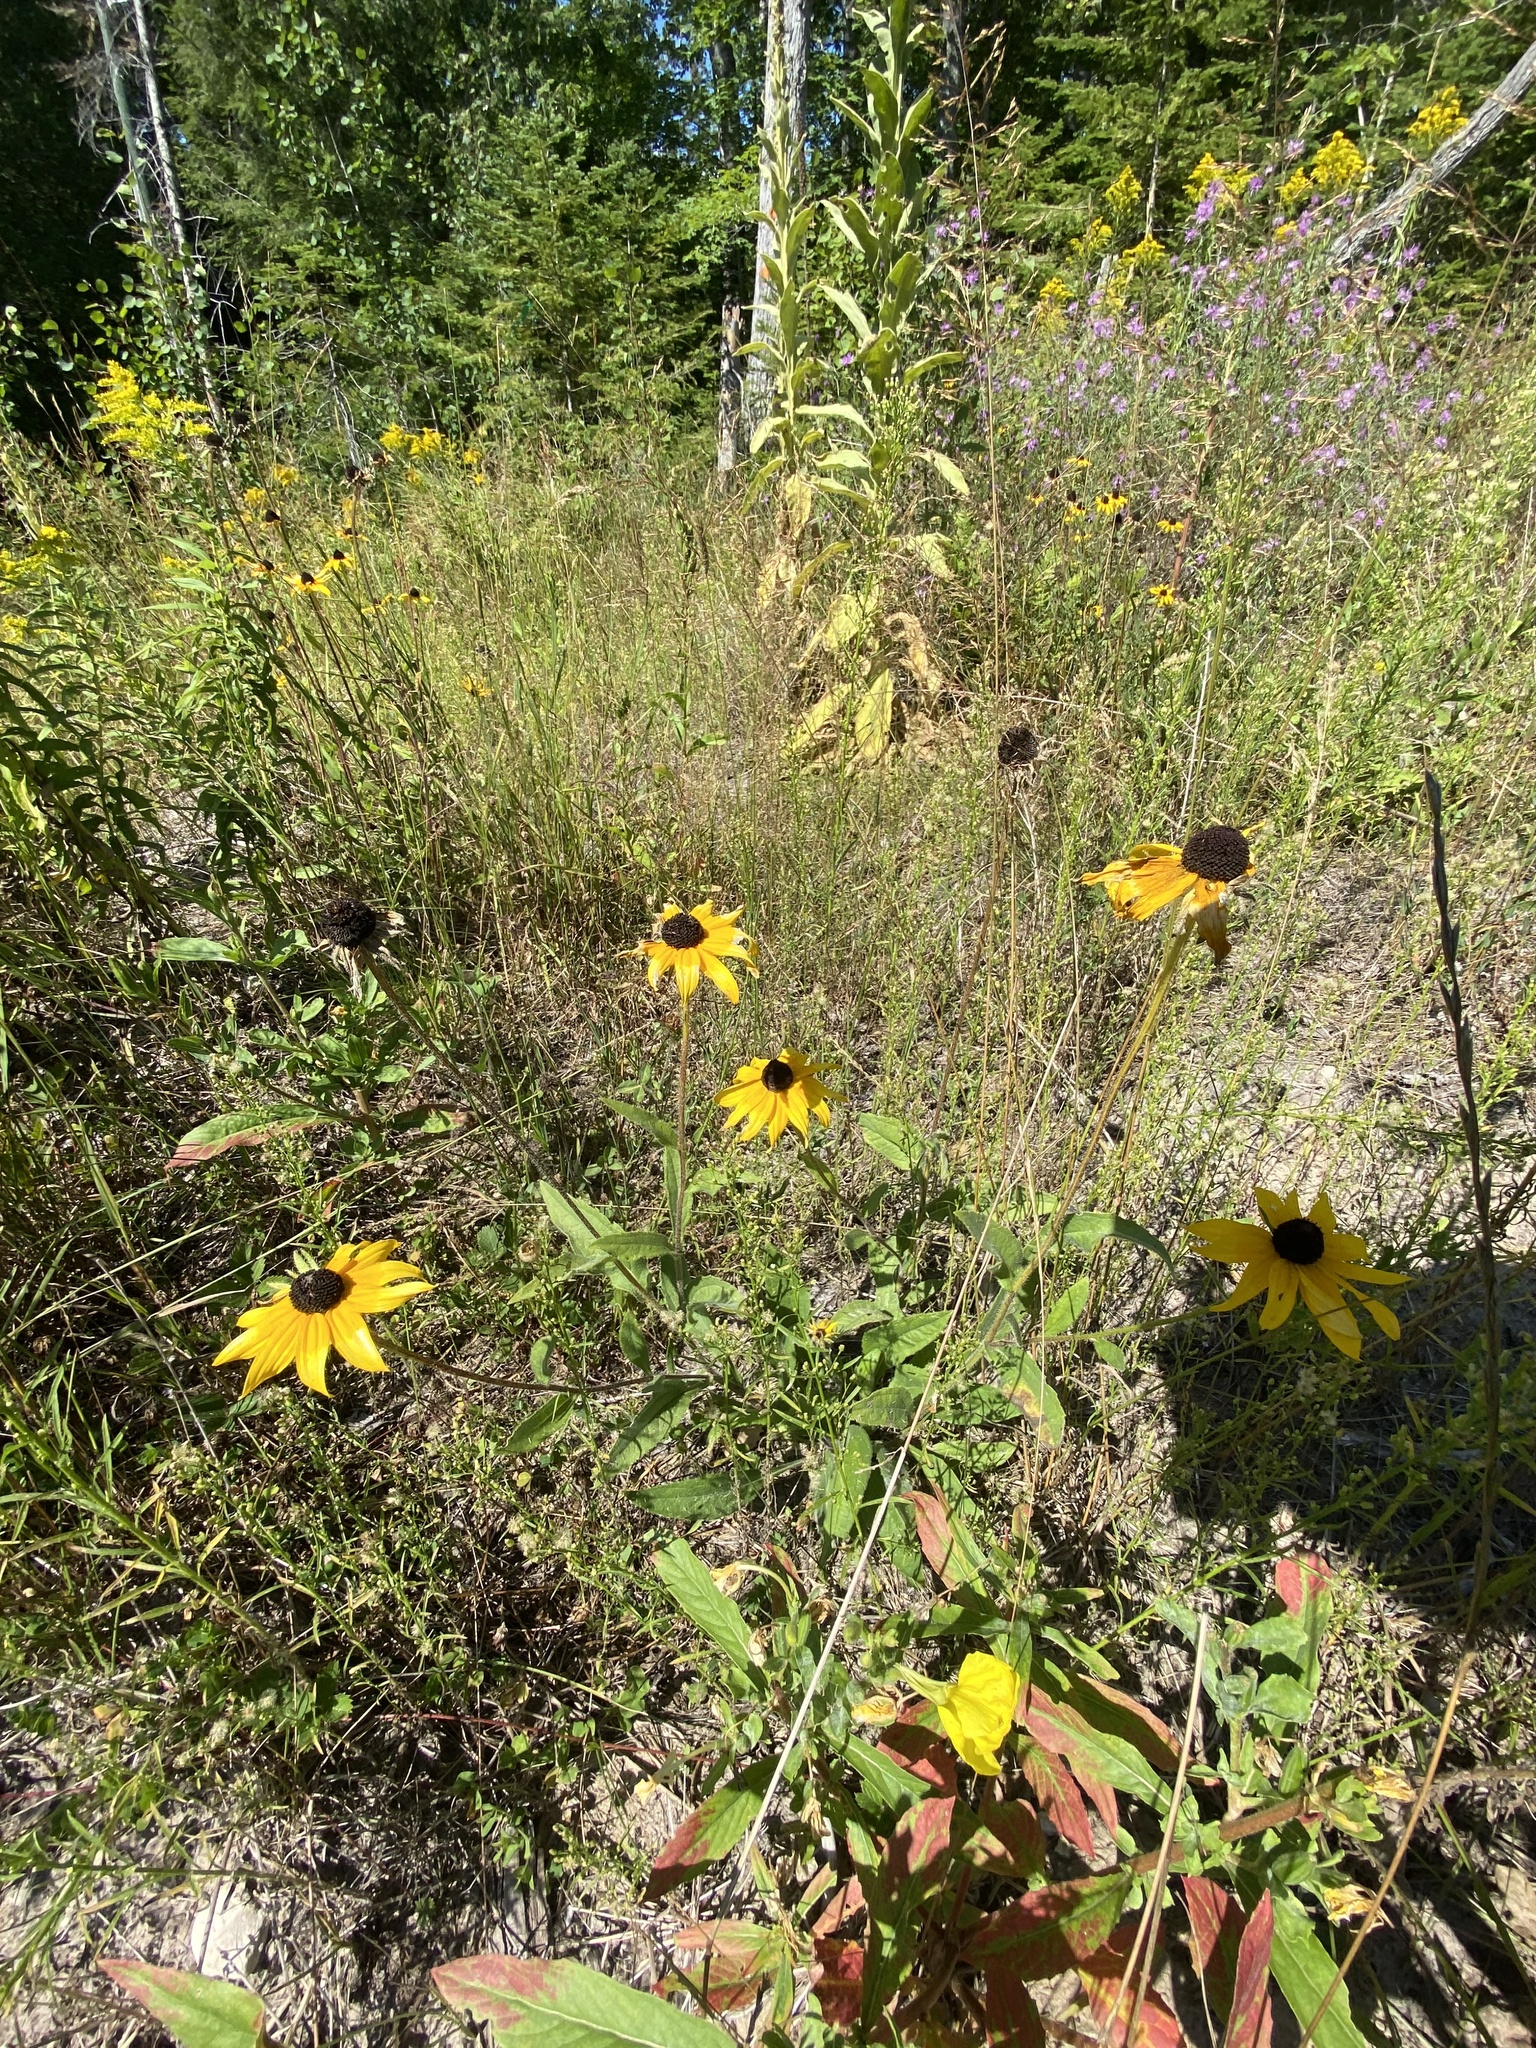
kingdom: Plantae
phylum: Tracheophyta
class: Magnoliopsida
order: Asterales
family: Asteraceae
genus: Rudbeckia
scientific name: Rudbeckia hirta
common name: Black-eyed-susan
